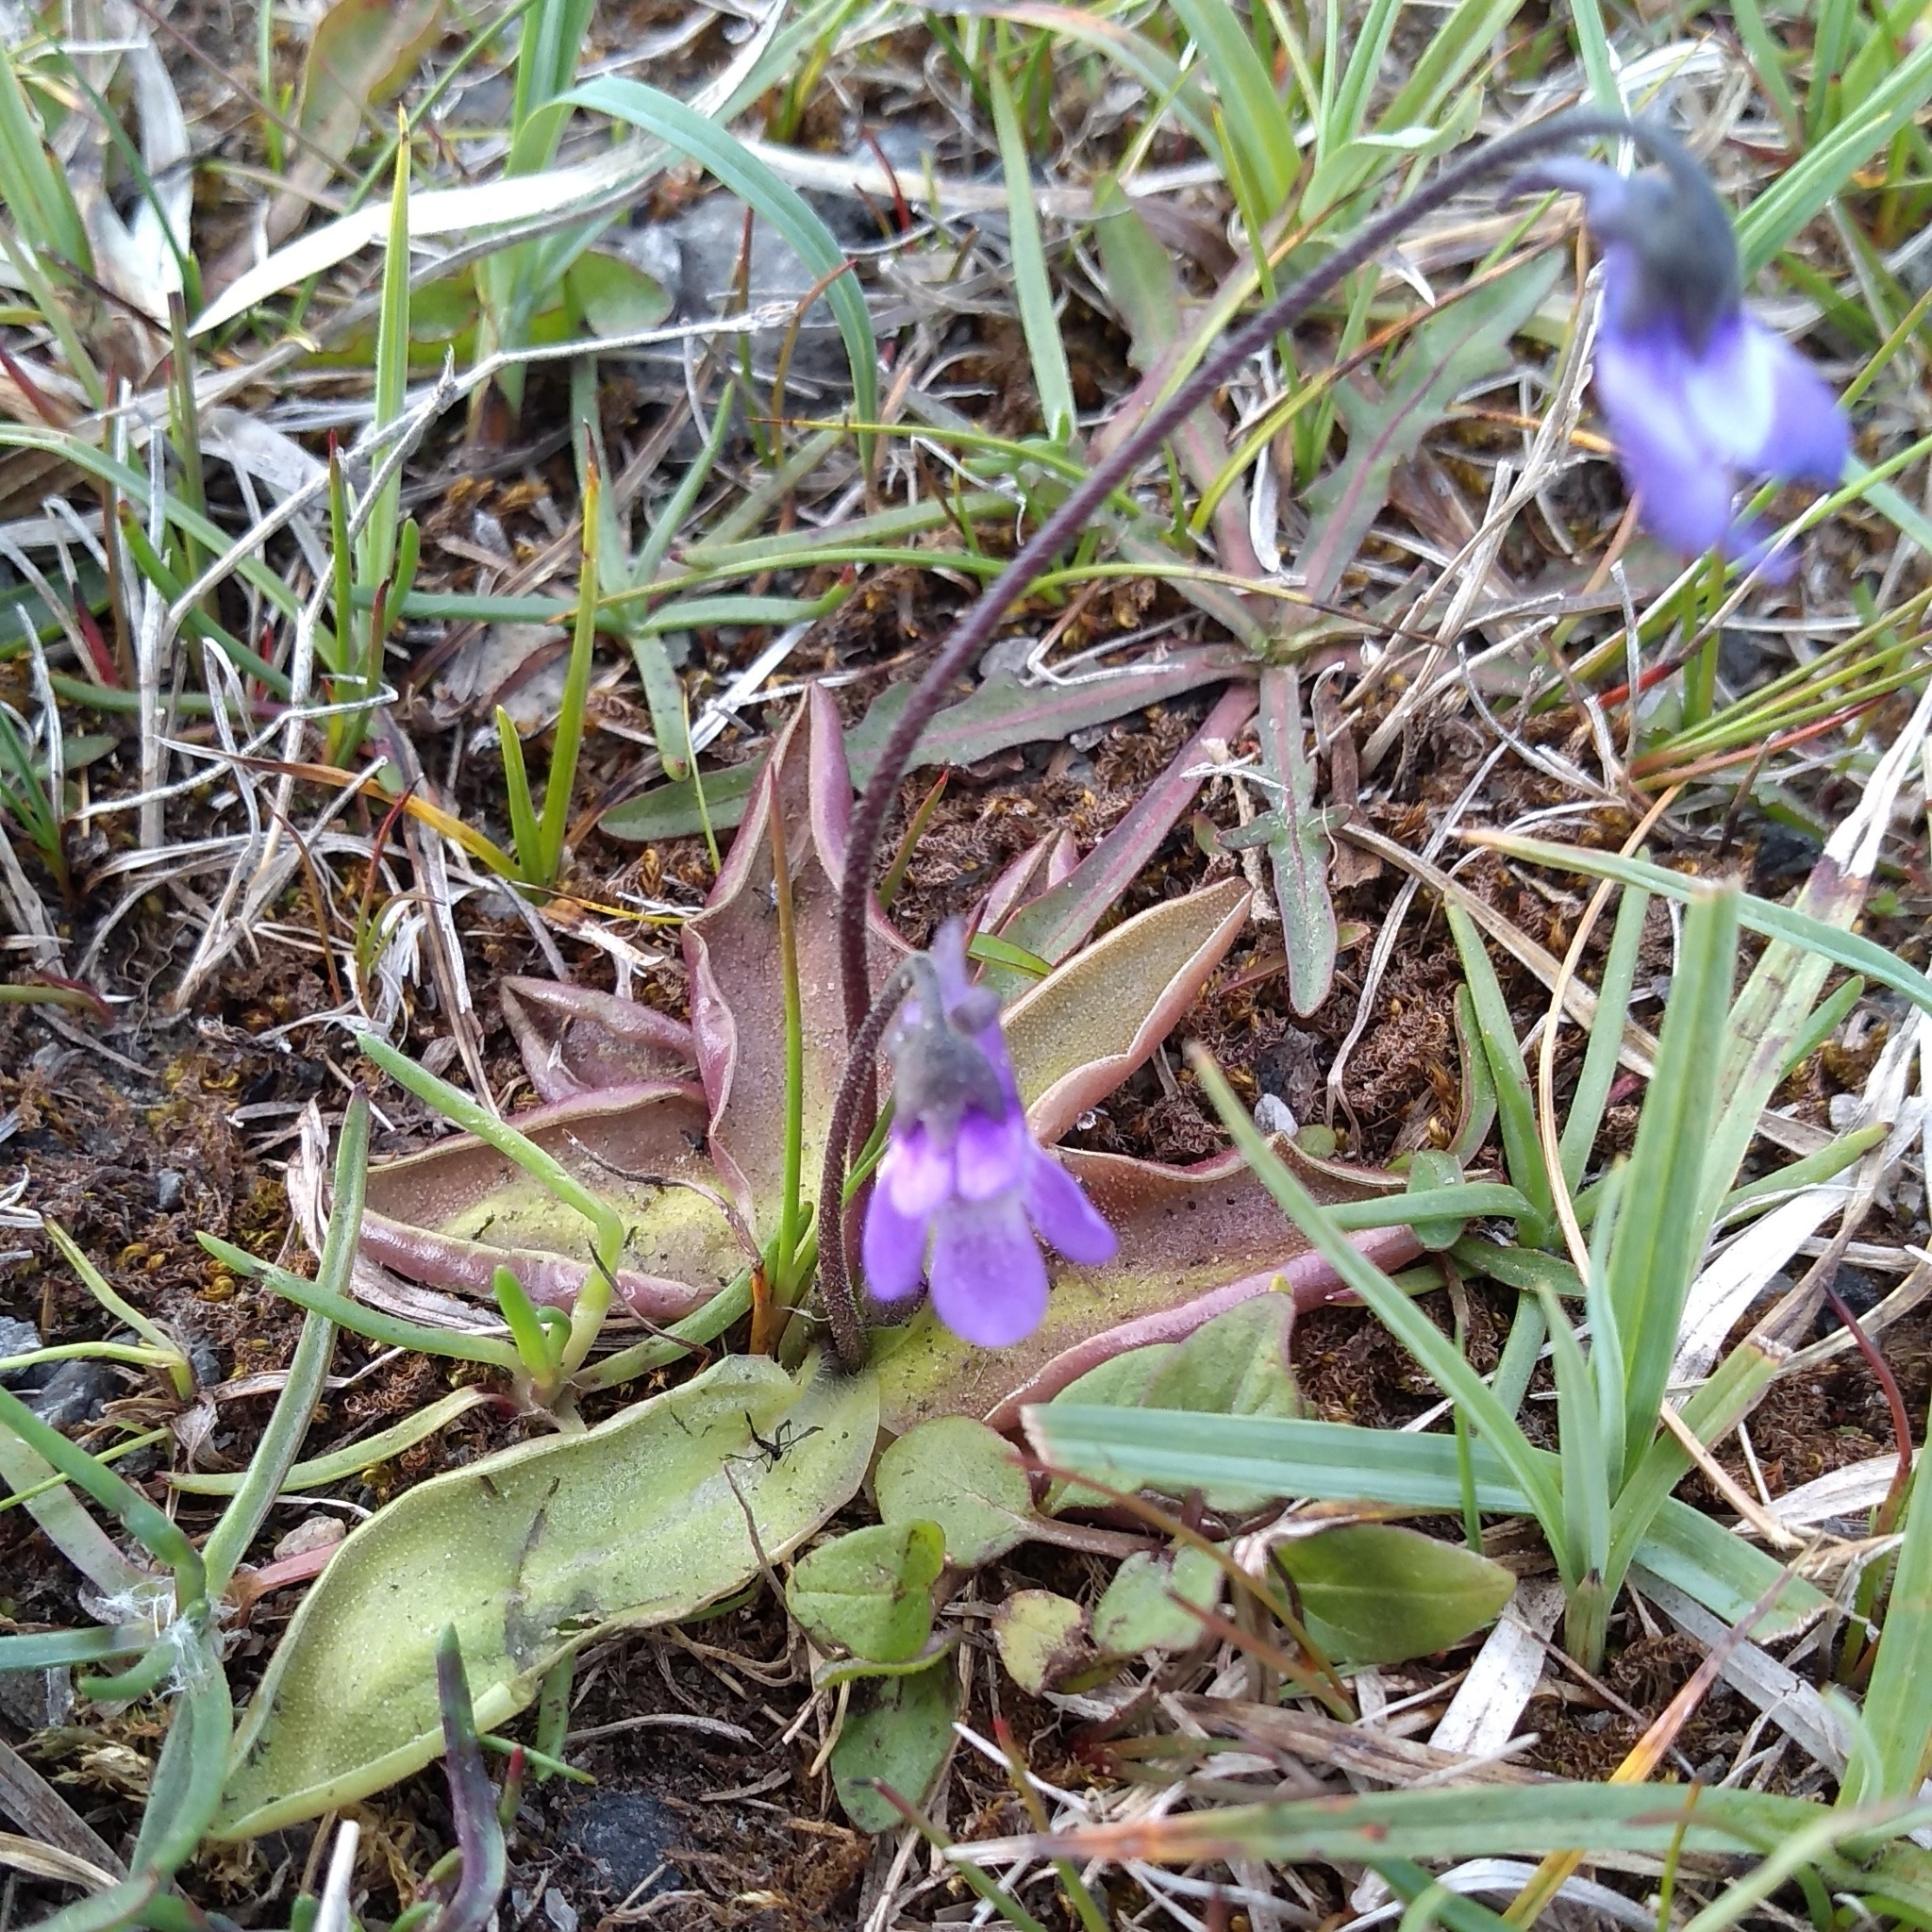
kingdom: Plantae
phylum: Tracheophyta
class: Magnoliopsida
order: Lamiales
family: Lentibulariaceae
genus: Pinguicula
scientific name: Pinguicula vulgaris
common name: Common butterwort
